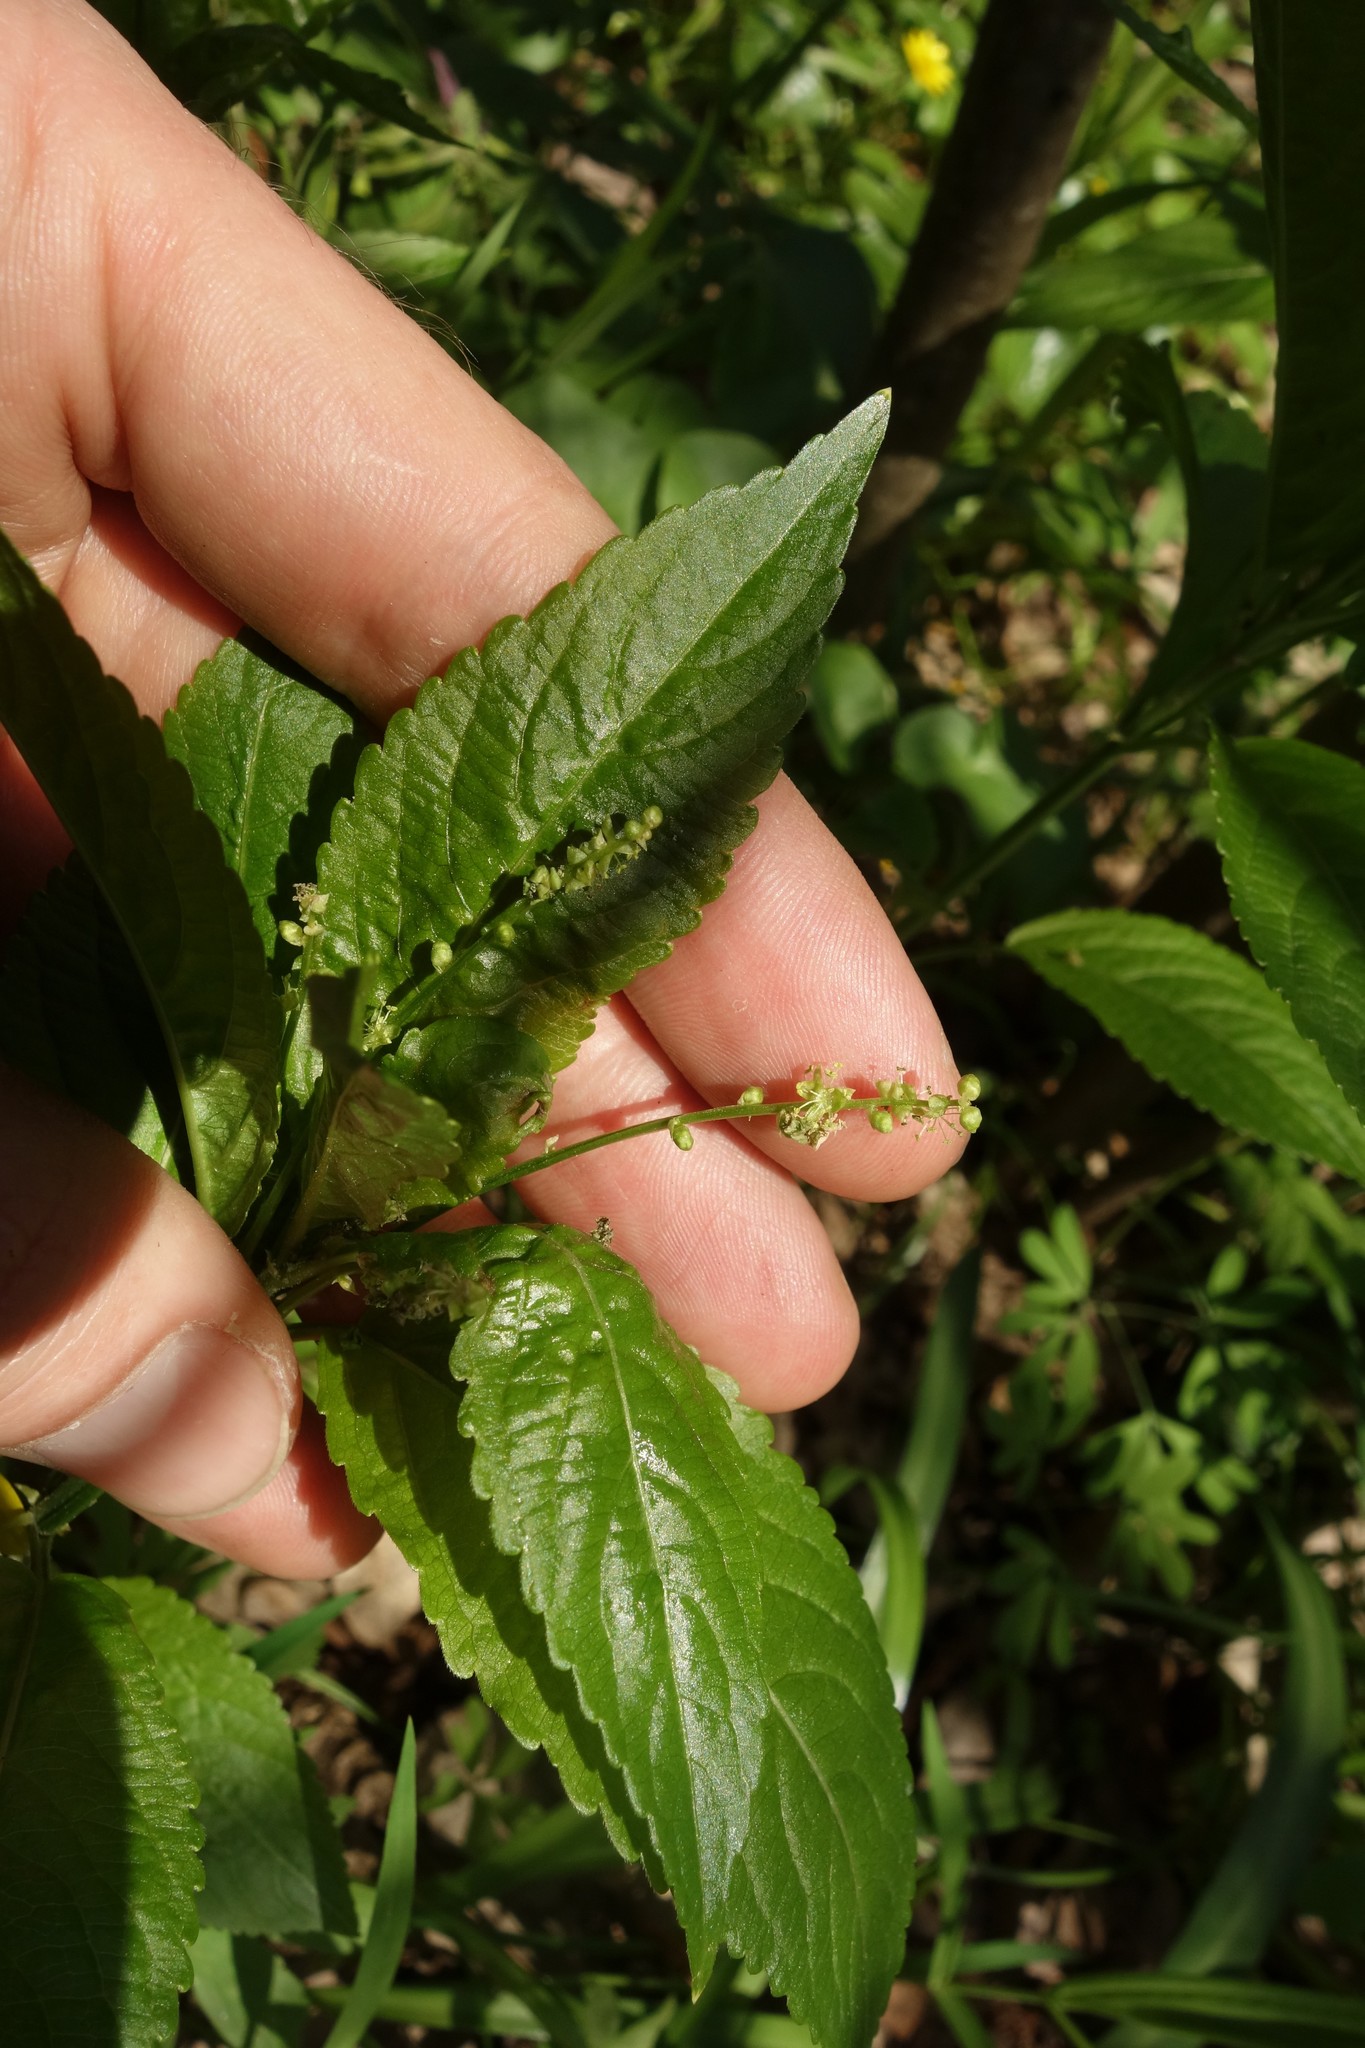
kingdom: Plantae
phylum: Tracheophyta
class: Magnoliopsida
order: Malpighiales
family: Euphorbiaceae
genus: Mercurialis
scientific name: Mercurialis perennis
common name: Dog mercury
